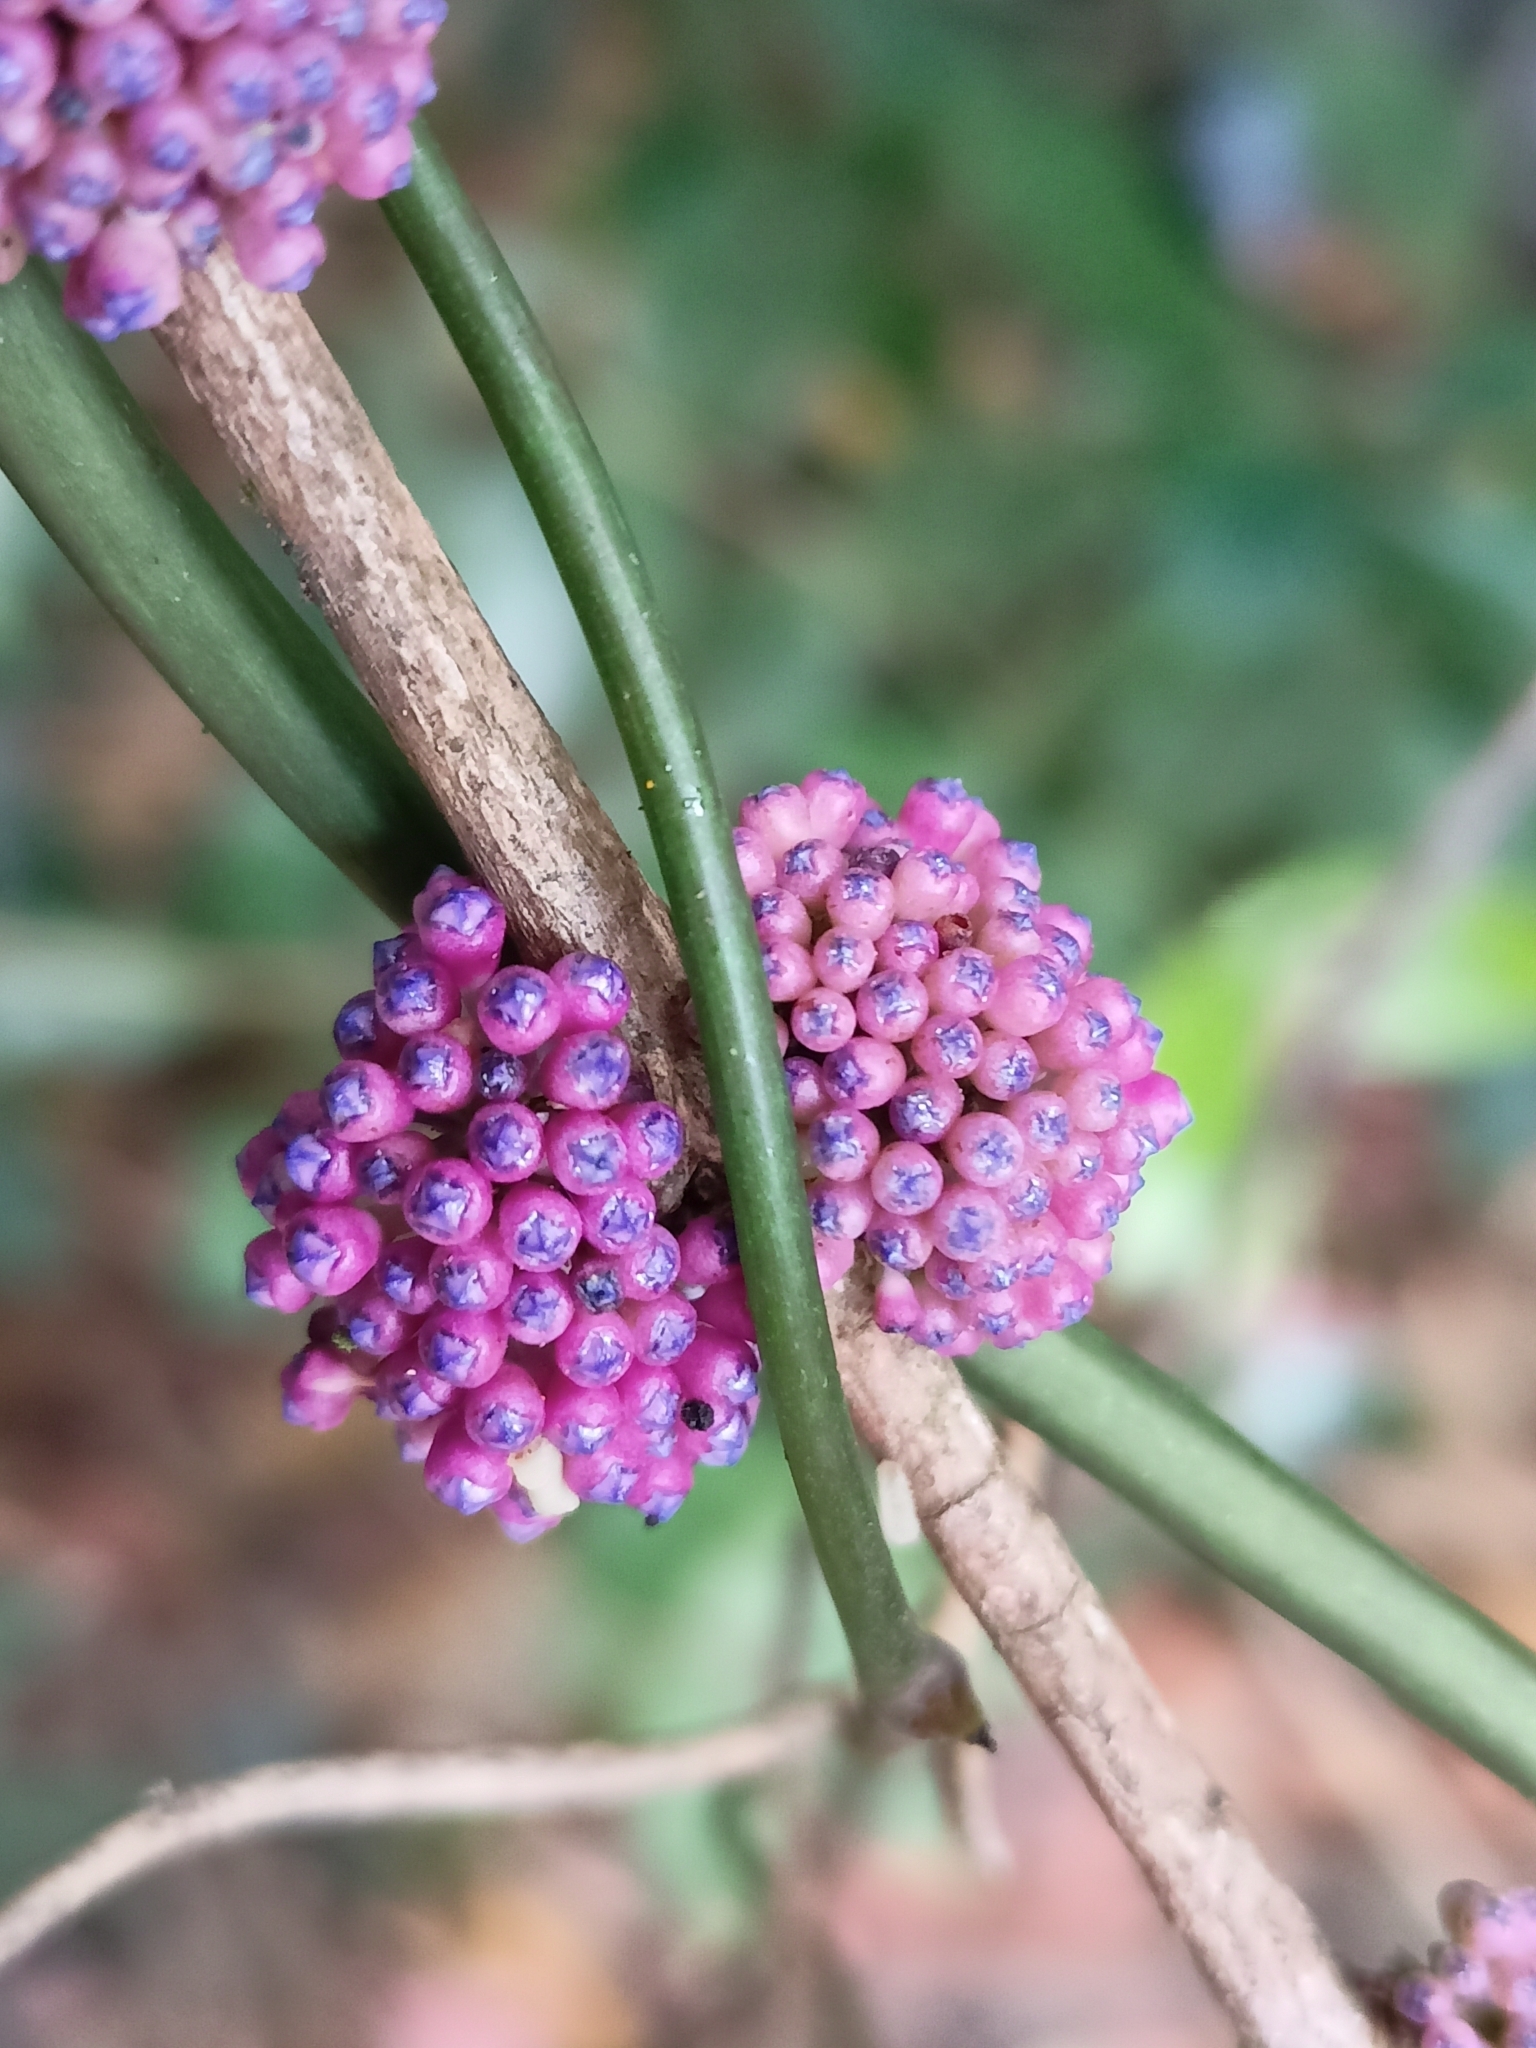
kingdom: Plantae
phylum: Tracheophyta
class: Magnoliopsida
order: Myrtales
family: Melastomataceae
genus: Memecylon
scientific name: Memecylon sessile
